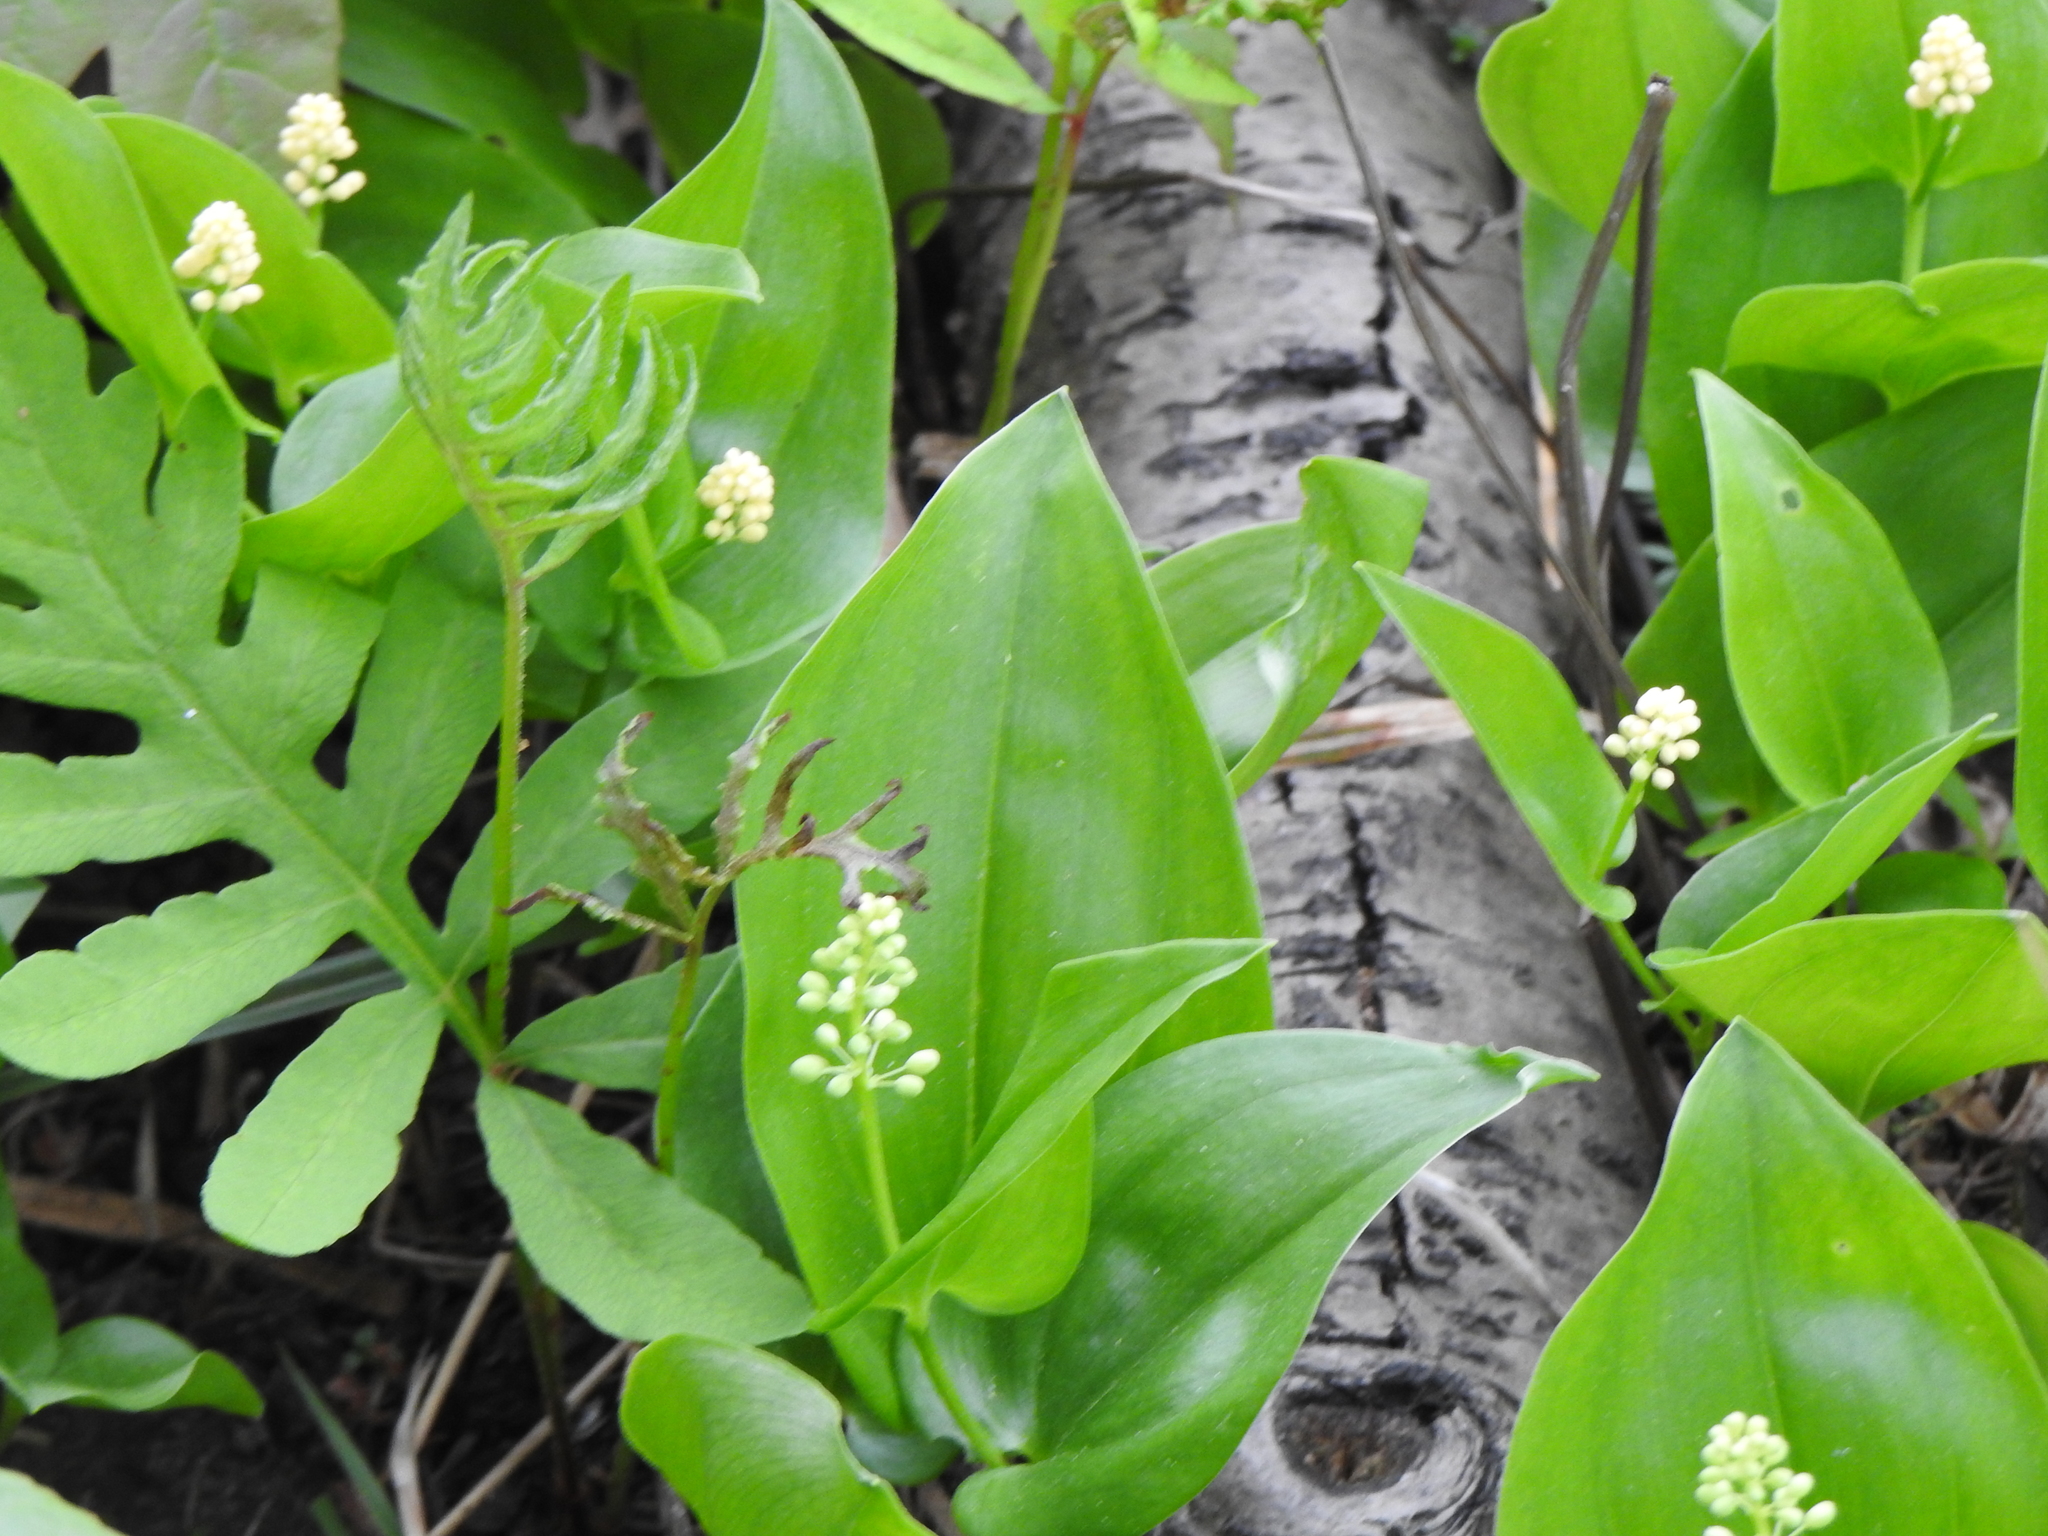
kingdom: Plantae
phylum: Tracheophyta
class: Liliopsida
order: Asparagales
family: Asparagaceae
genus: Maianthemum
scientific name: Maianthemum canadense
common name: False lily-of-the-valley
